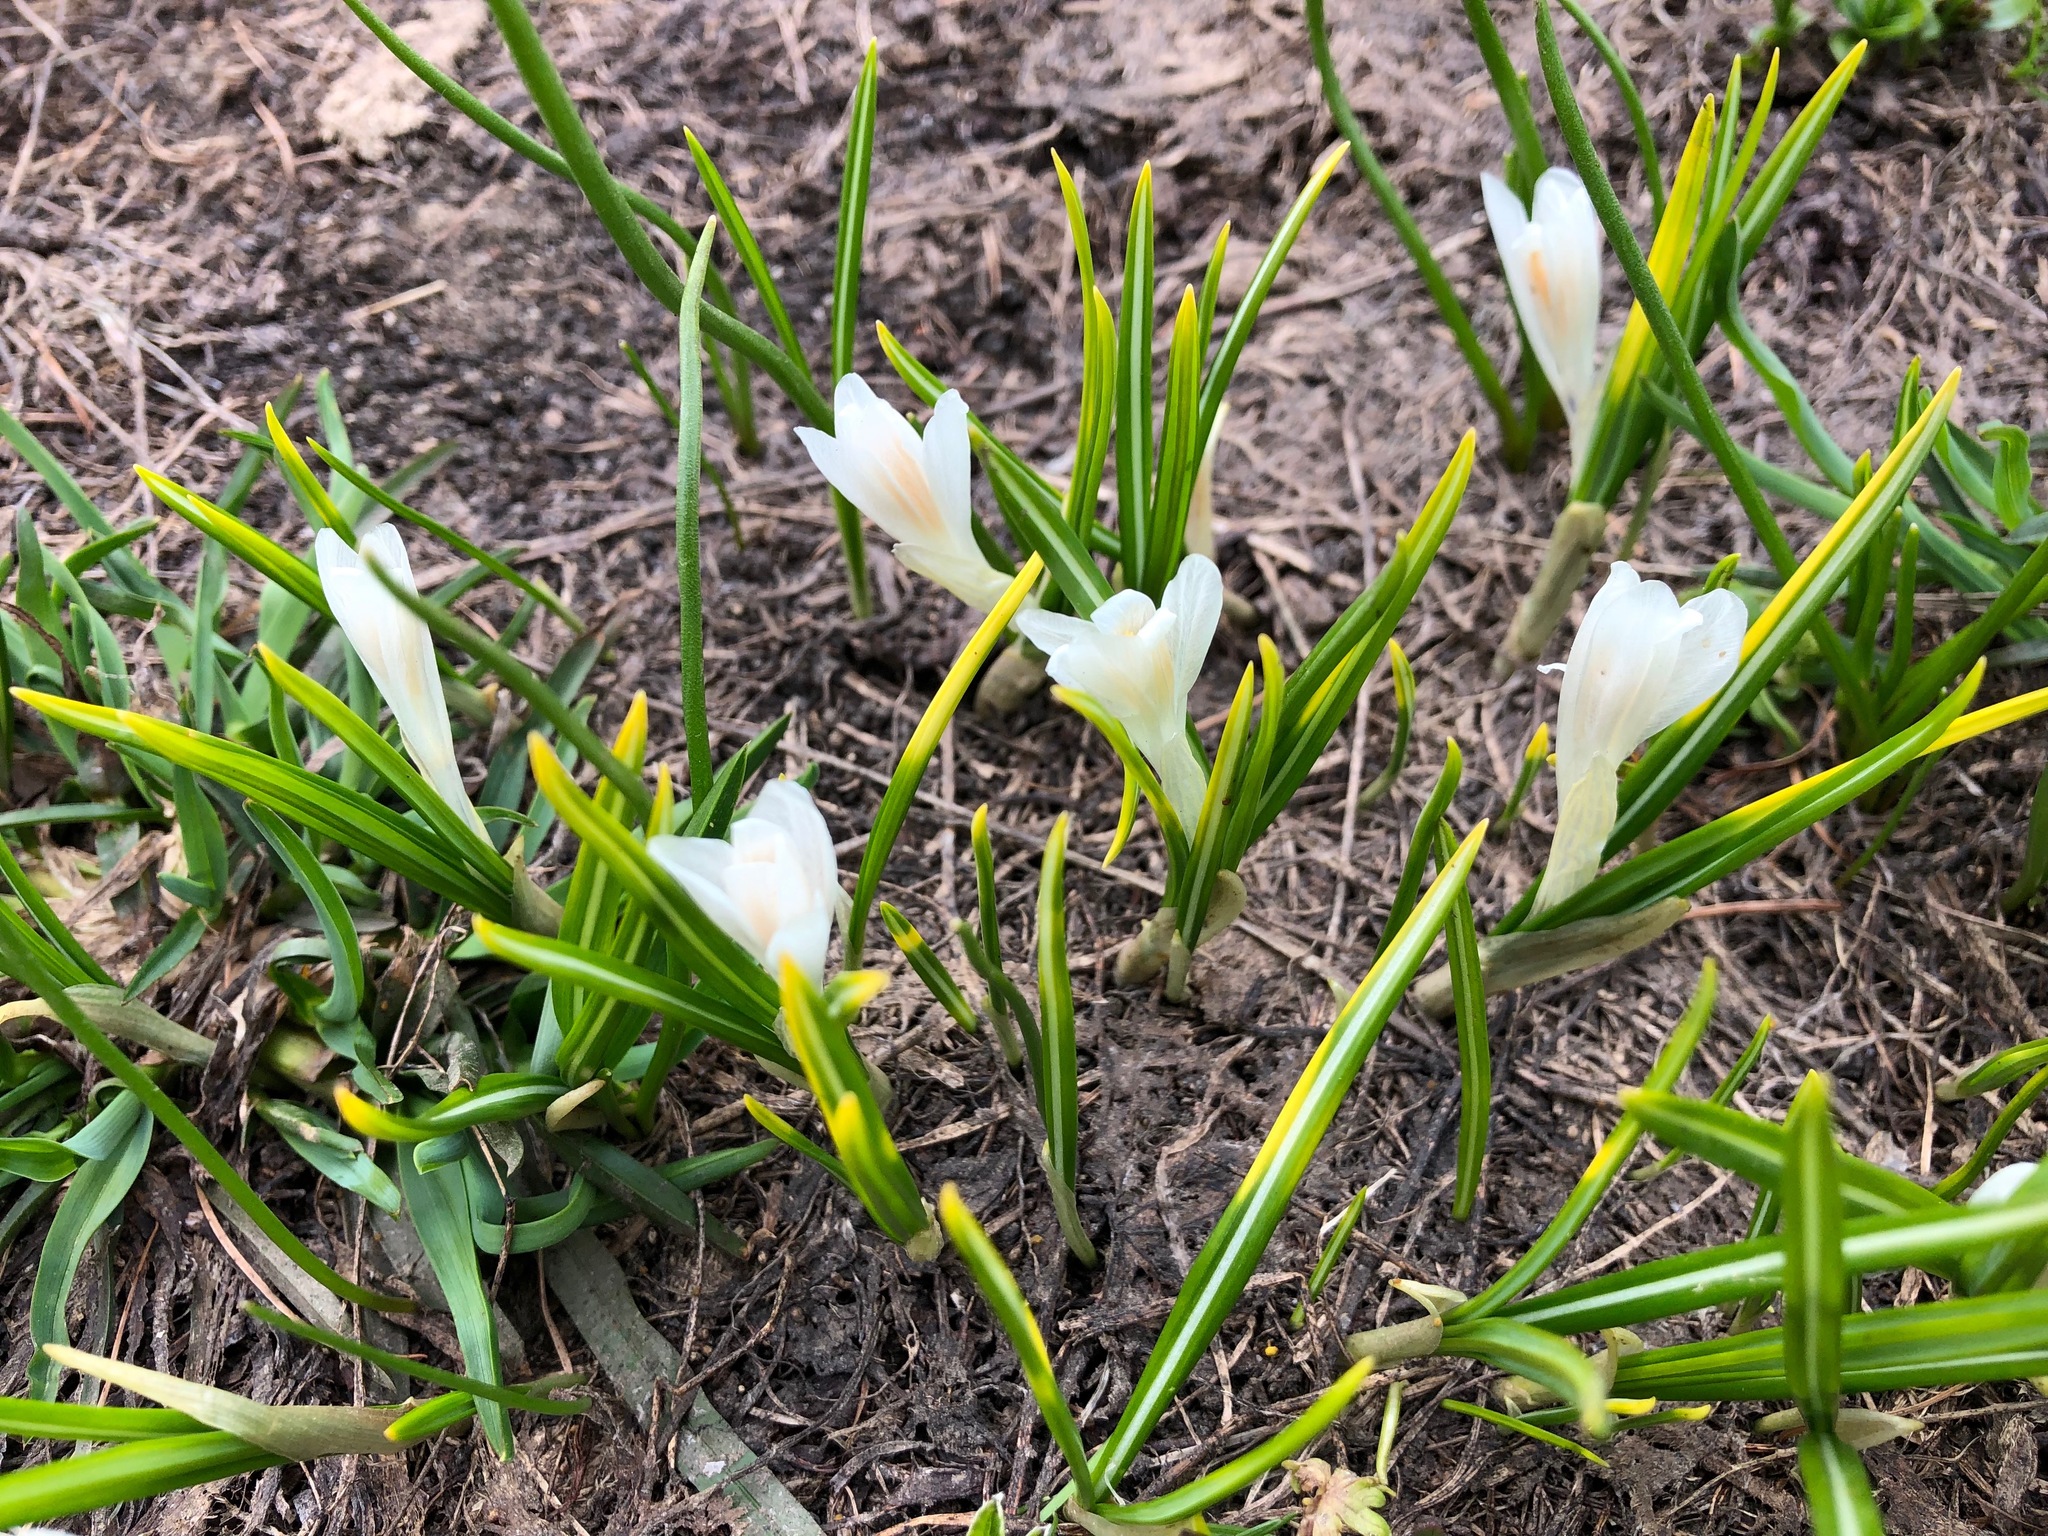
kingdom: Plantae
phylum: Tracheophyta
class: Liliopsida
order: Asparagales
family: Iridaceae
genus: Crocus
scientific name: Crocus vernus
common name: Spring crocus
